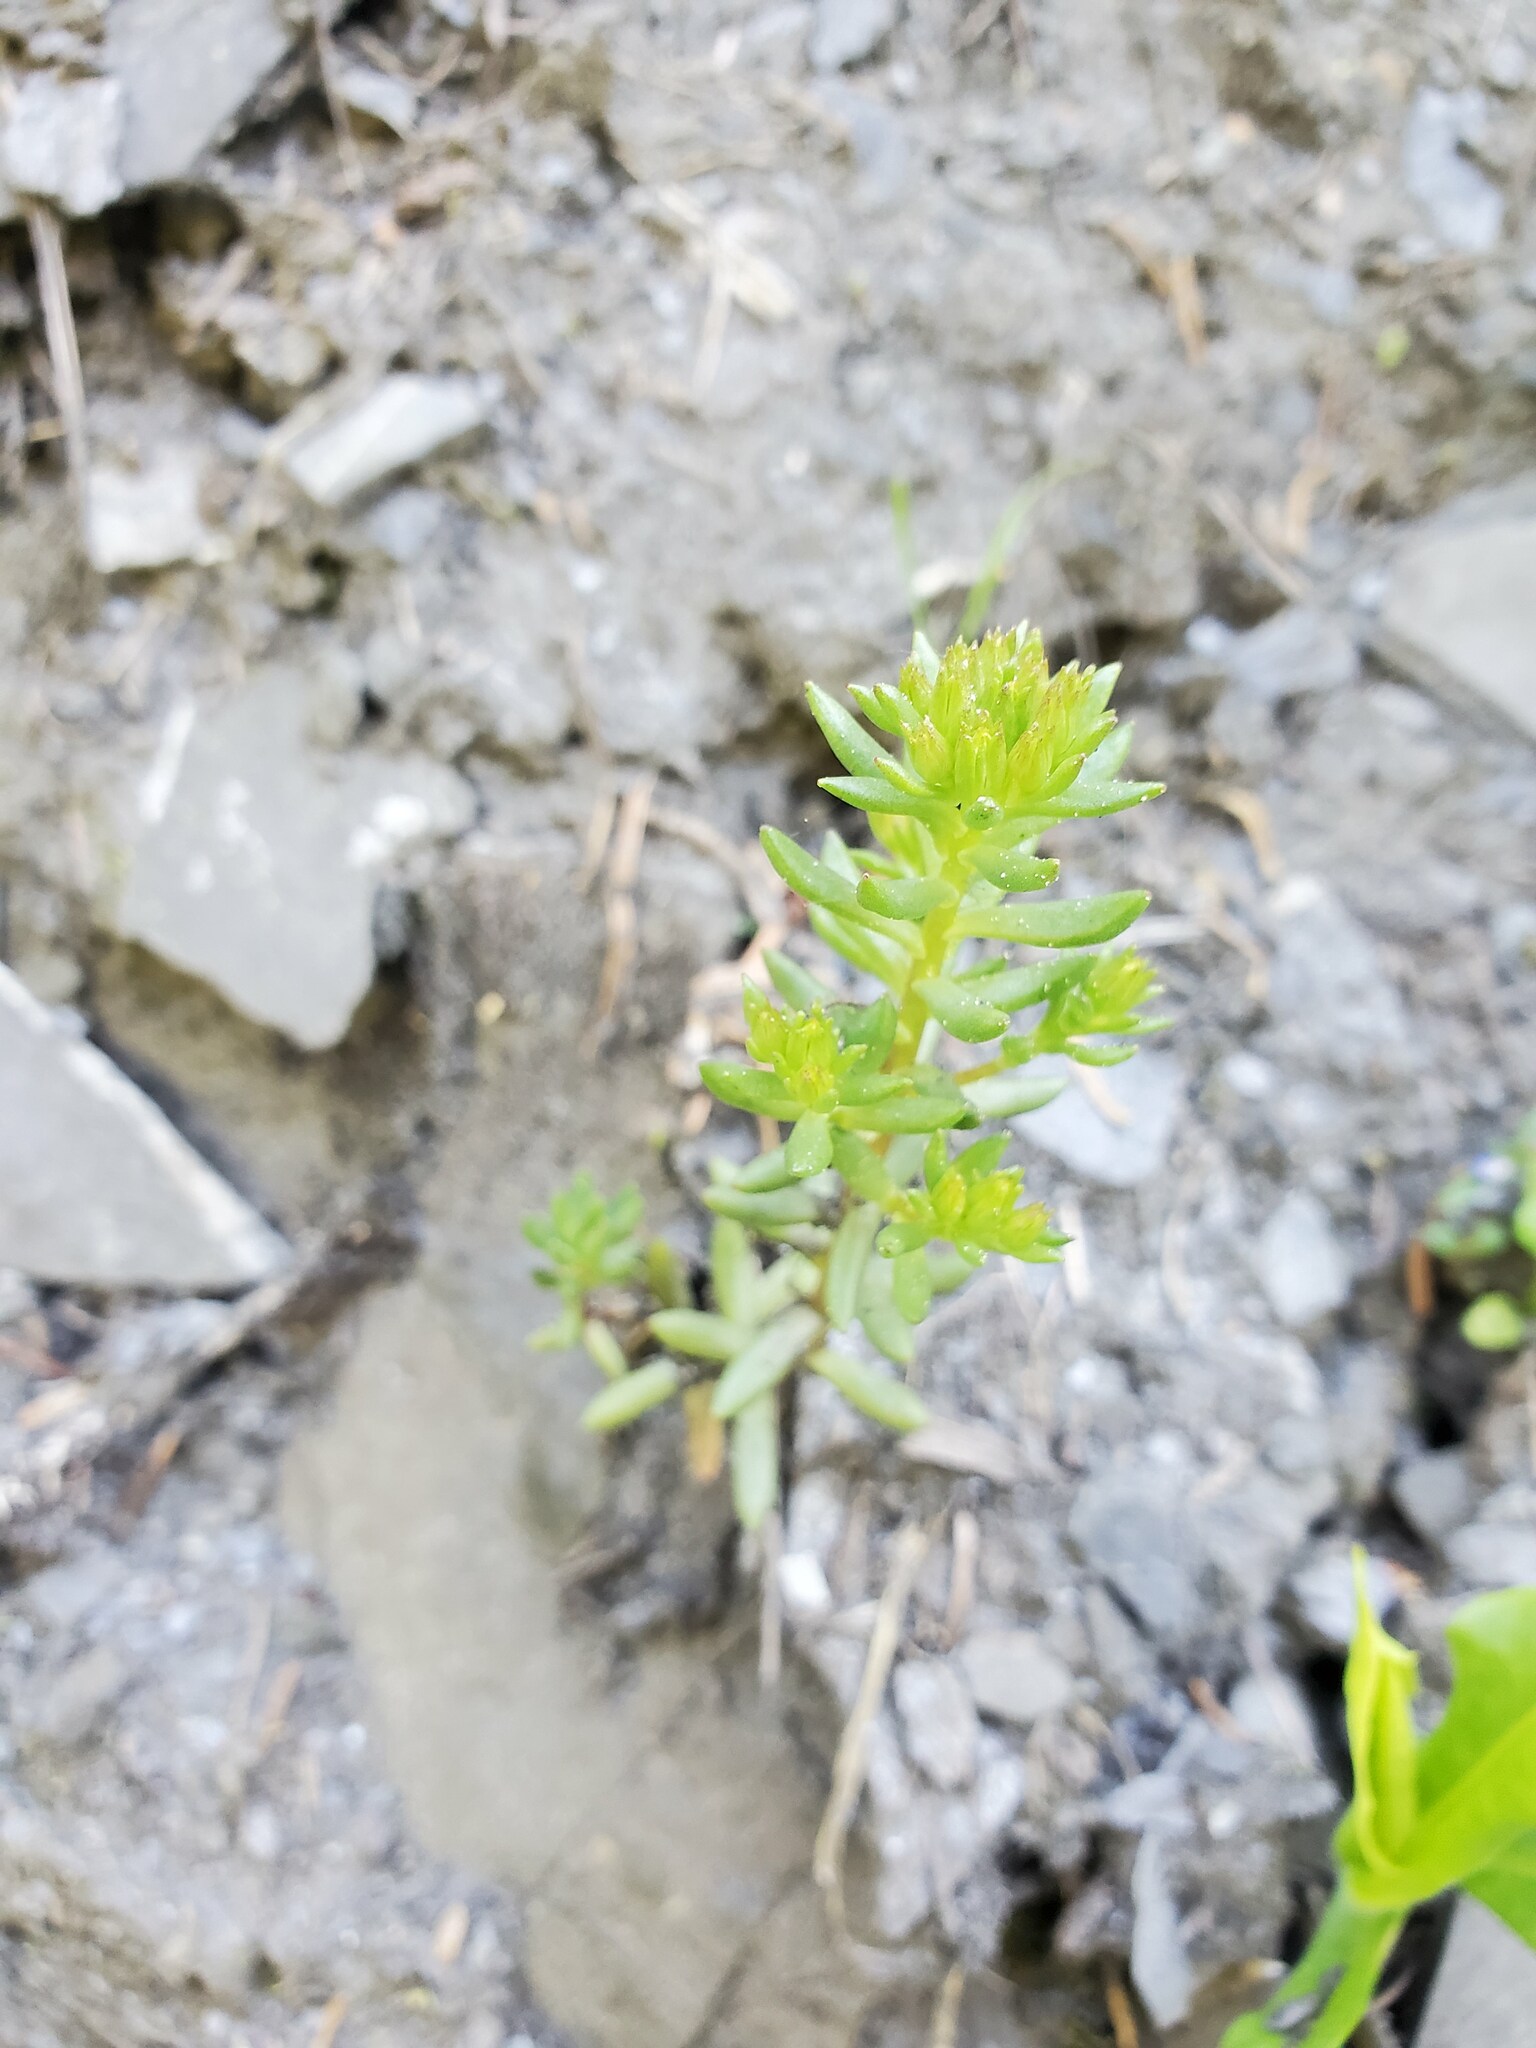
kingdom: Plantae
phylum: Tracheophyta
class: Magnoliopsida
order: Saxifragales
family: Crassulaceae
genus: Sedum
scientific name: Sedum stenopetalum
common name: Narrow-petaled stonecrop
